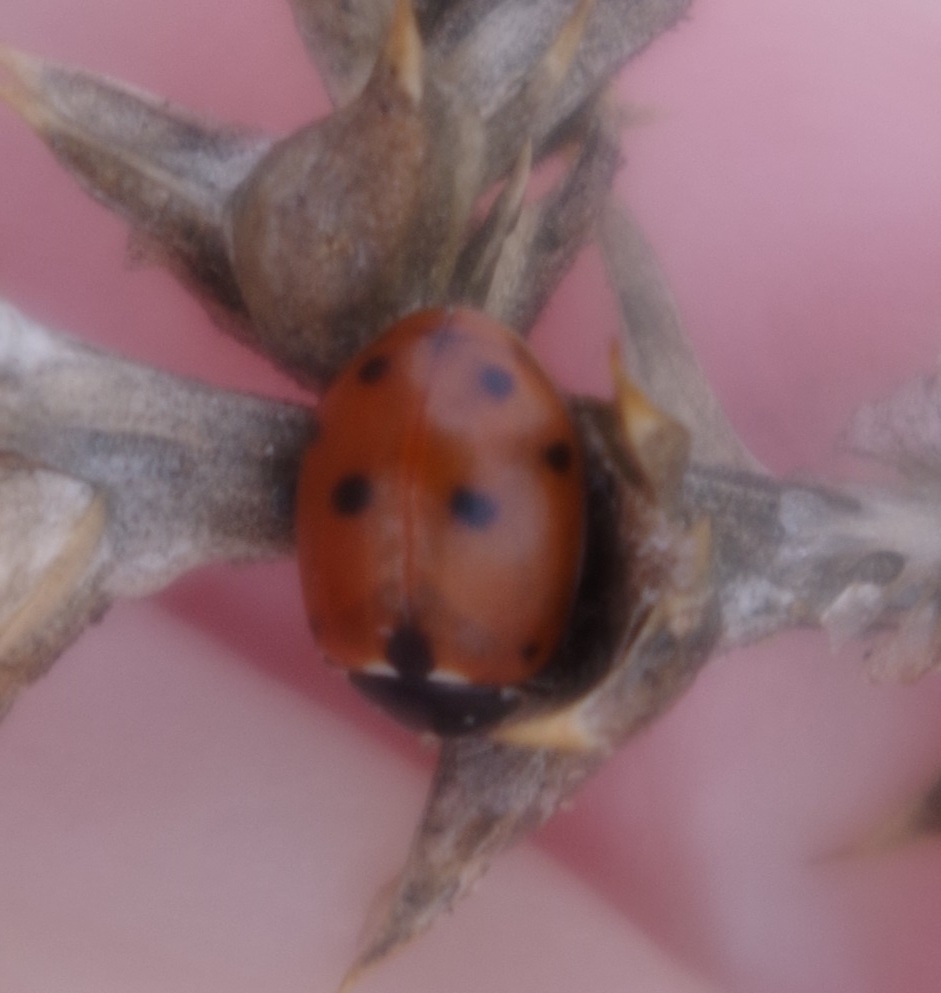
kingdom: Animalia
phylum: Arthropoda
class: Insecta
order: Coleoptera
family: Coccinellidae
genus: Hippodamia
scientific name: Hippodamia variegata
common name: Ladybird beetle
